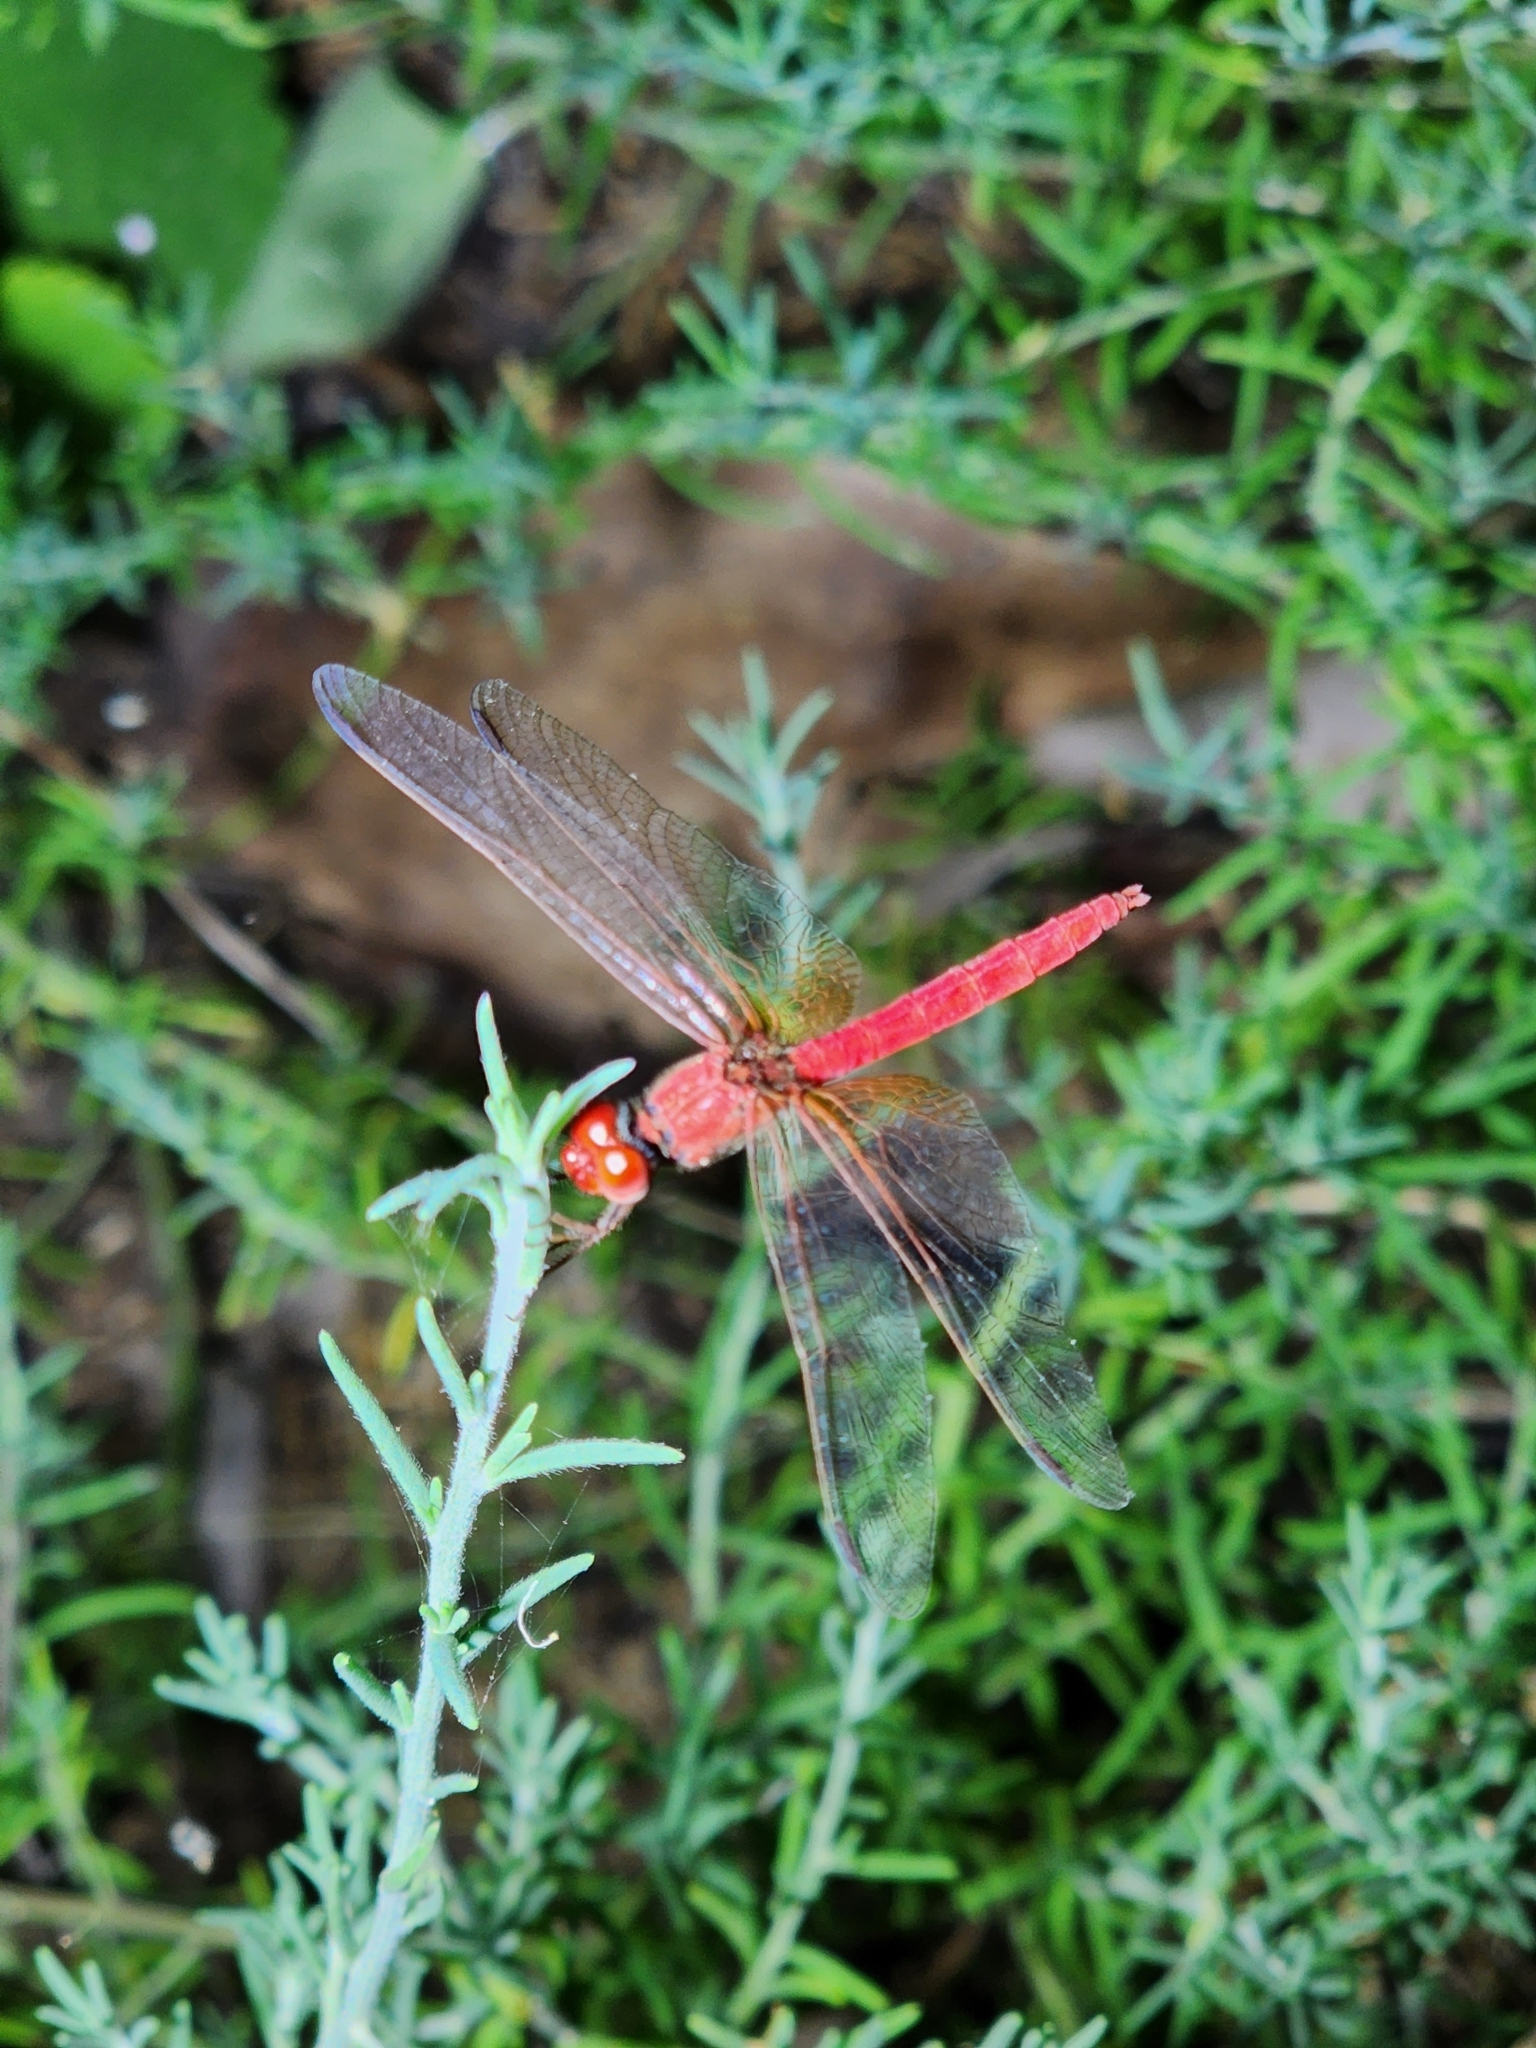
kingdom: Animalia
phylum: Arthropoda
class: Insecta
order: Odonata
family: Libellulidae
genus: Diplacodes
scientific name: Diplacodes haematodes
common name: Scarlet percher
